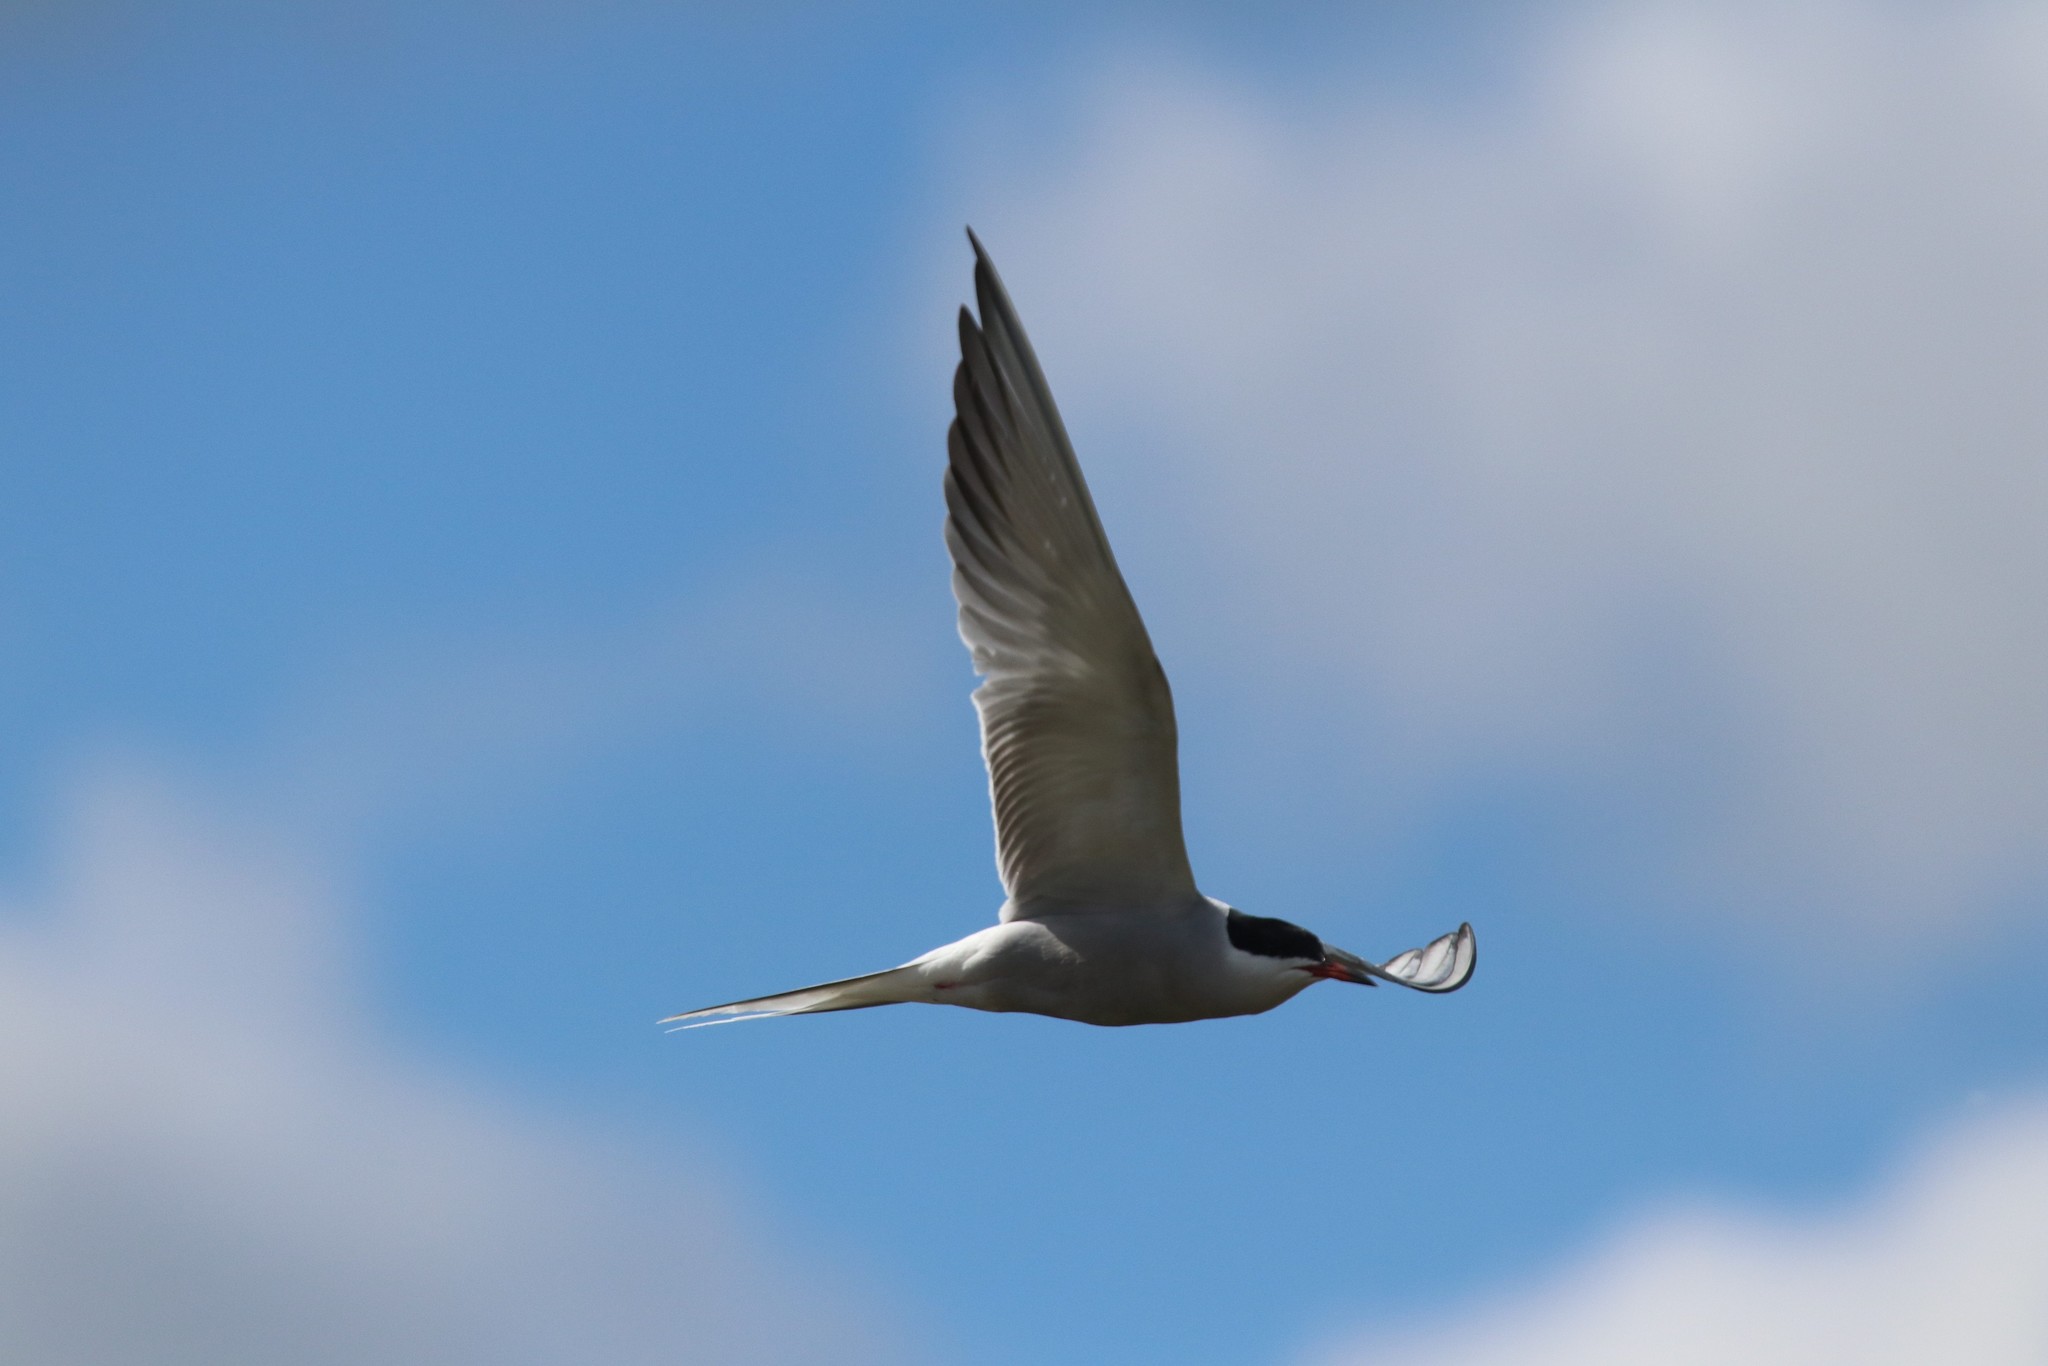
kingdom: Animalia
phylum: Chordata
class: Aves
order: Charadriiformes
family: Laridae
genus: Sterna
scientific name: Sterna hirundo
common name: Common tern
